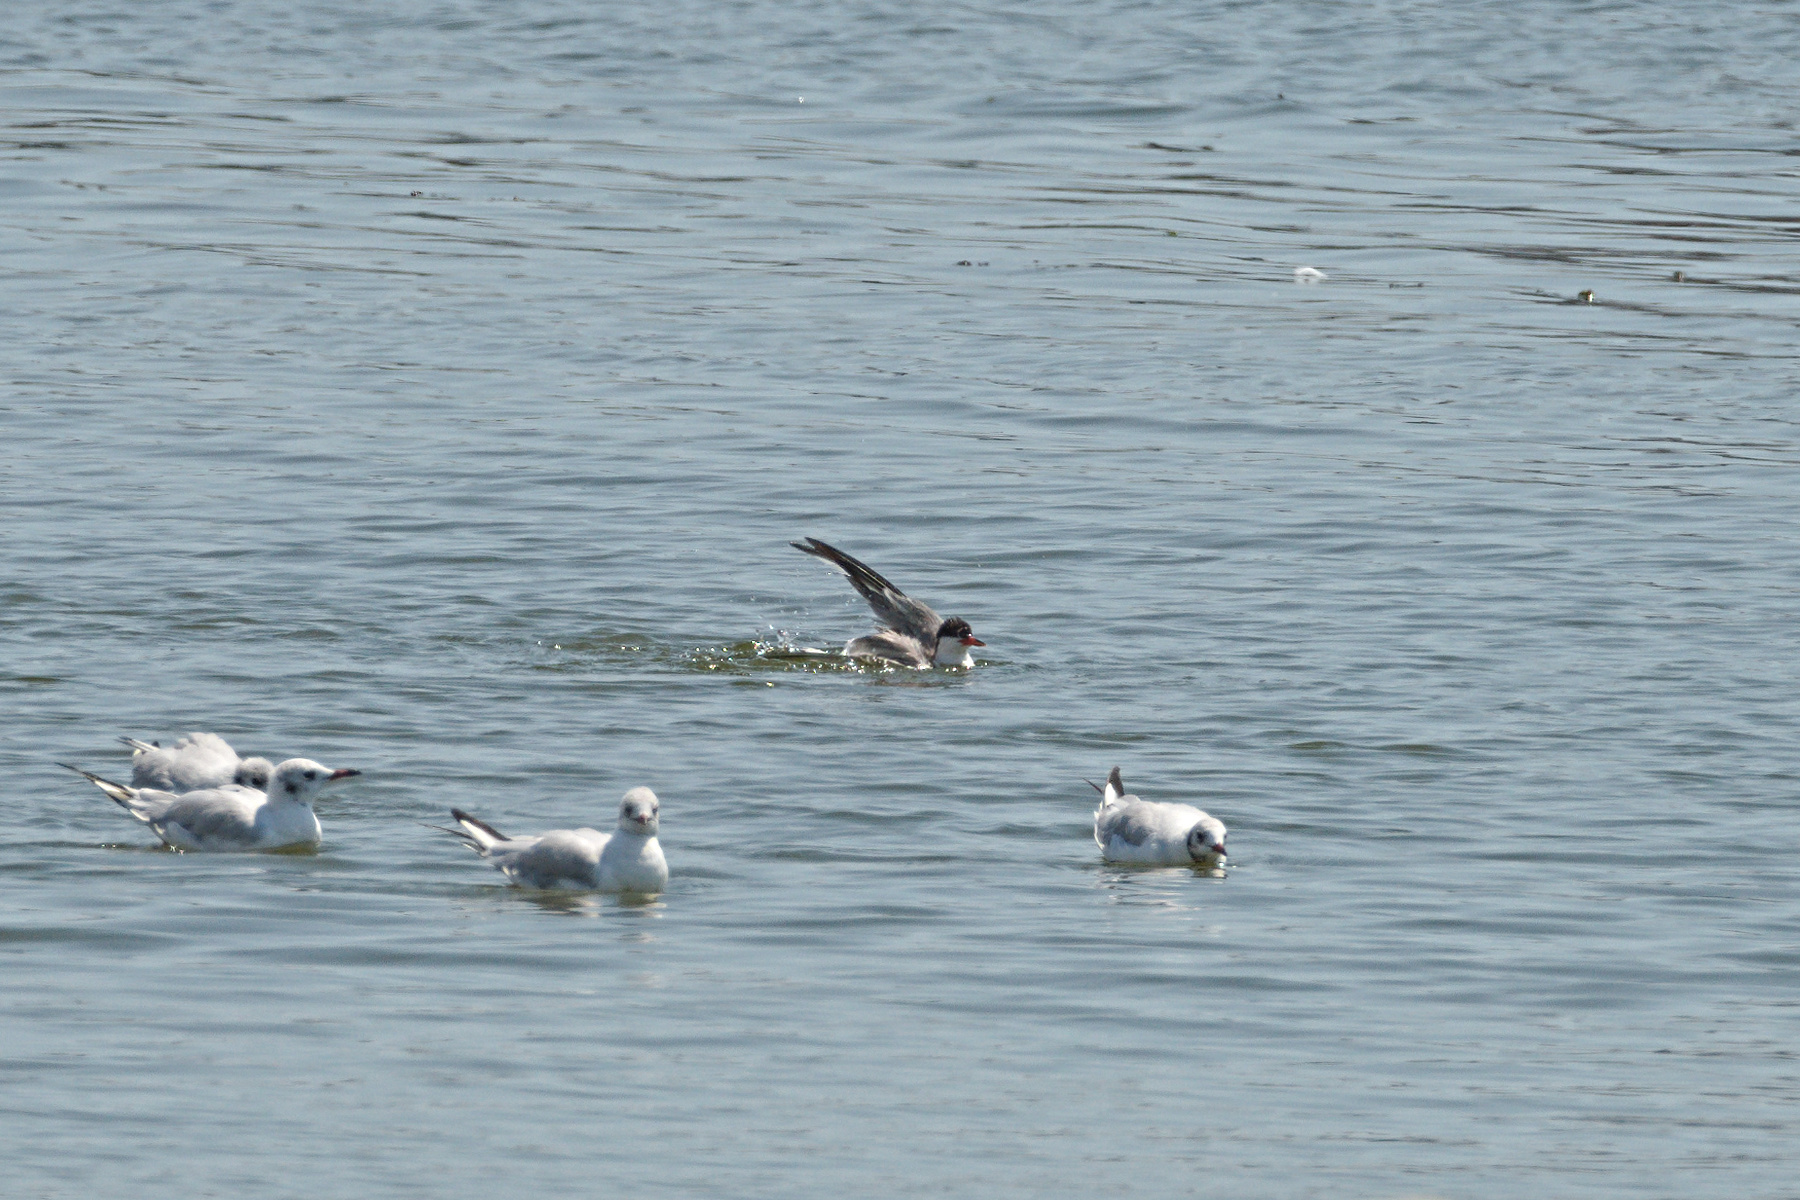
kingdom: Animalia
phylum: Chordata
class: Aves
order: Charadriiformes
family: Laridae
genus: Sterna
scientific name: Sterna hirundo
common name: Common tern
